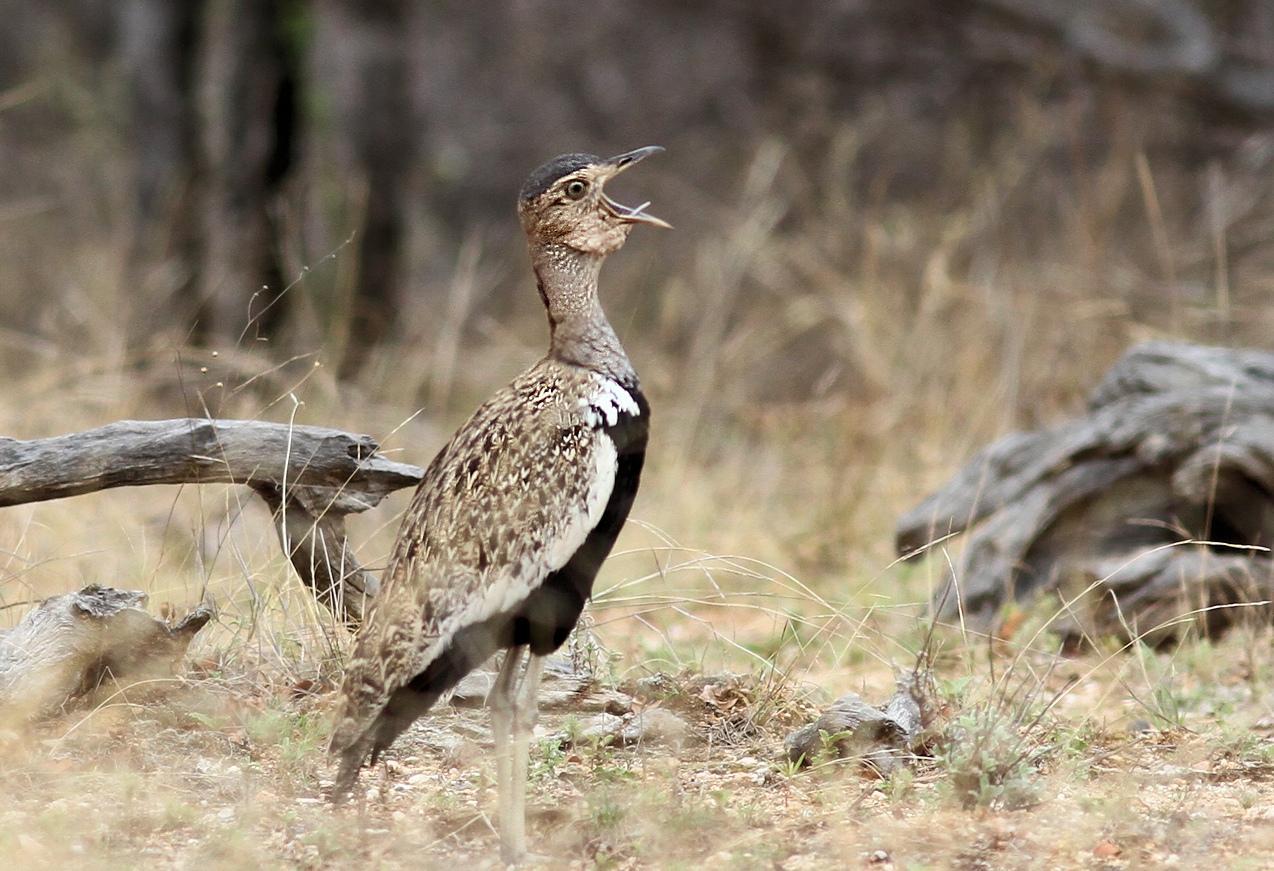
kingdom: Animalia
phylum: Chordata
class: Aves
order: Otidiformes
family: Otididae
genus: Lophotis
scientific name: Lophotis ruficrista
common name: Red-crested korhaan
